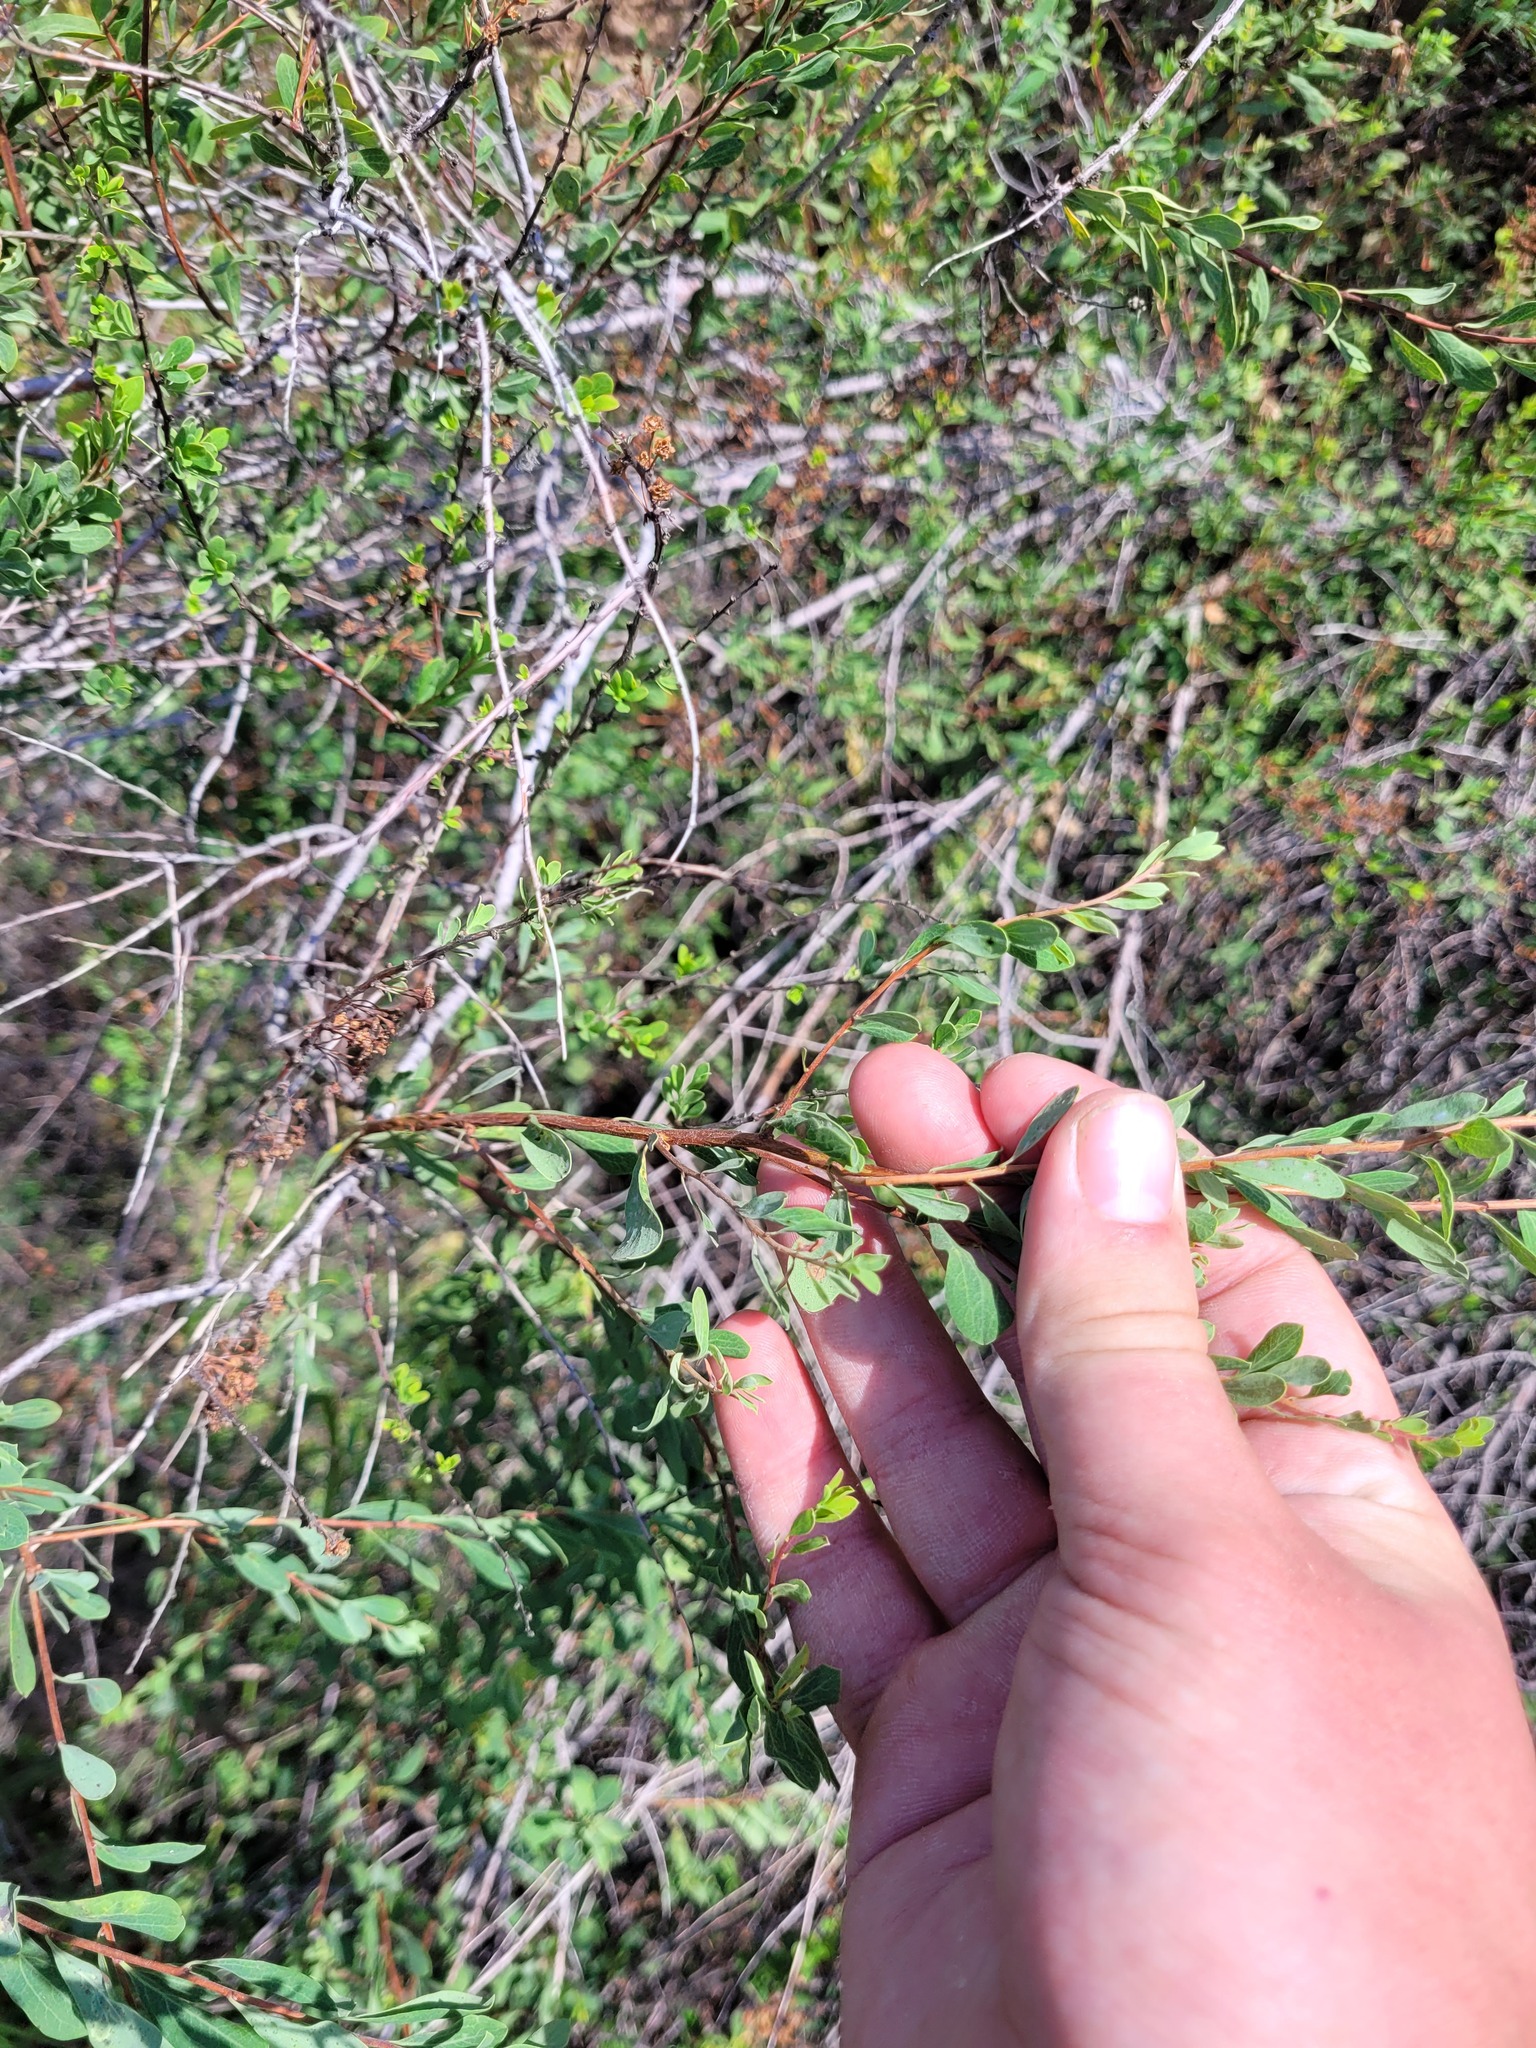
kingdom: Plantae
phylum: Tracheophyta
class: Magnoliopsida
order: Rosales
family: Rosaceae
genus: Spiraea
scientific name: Spiraea hypericifolia
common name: Iberian spirea
